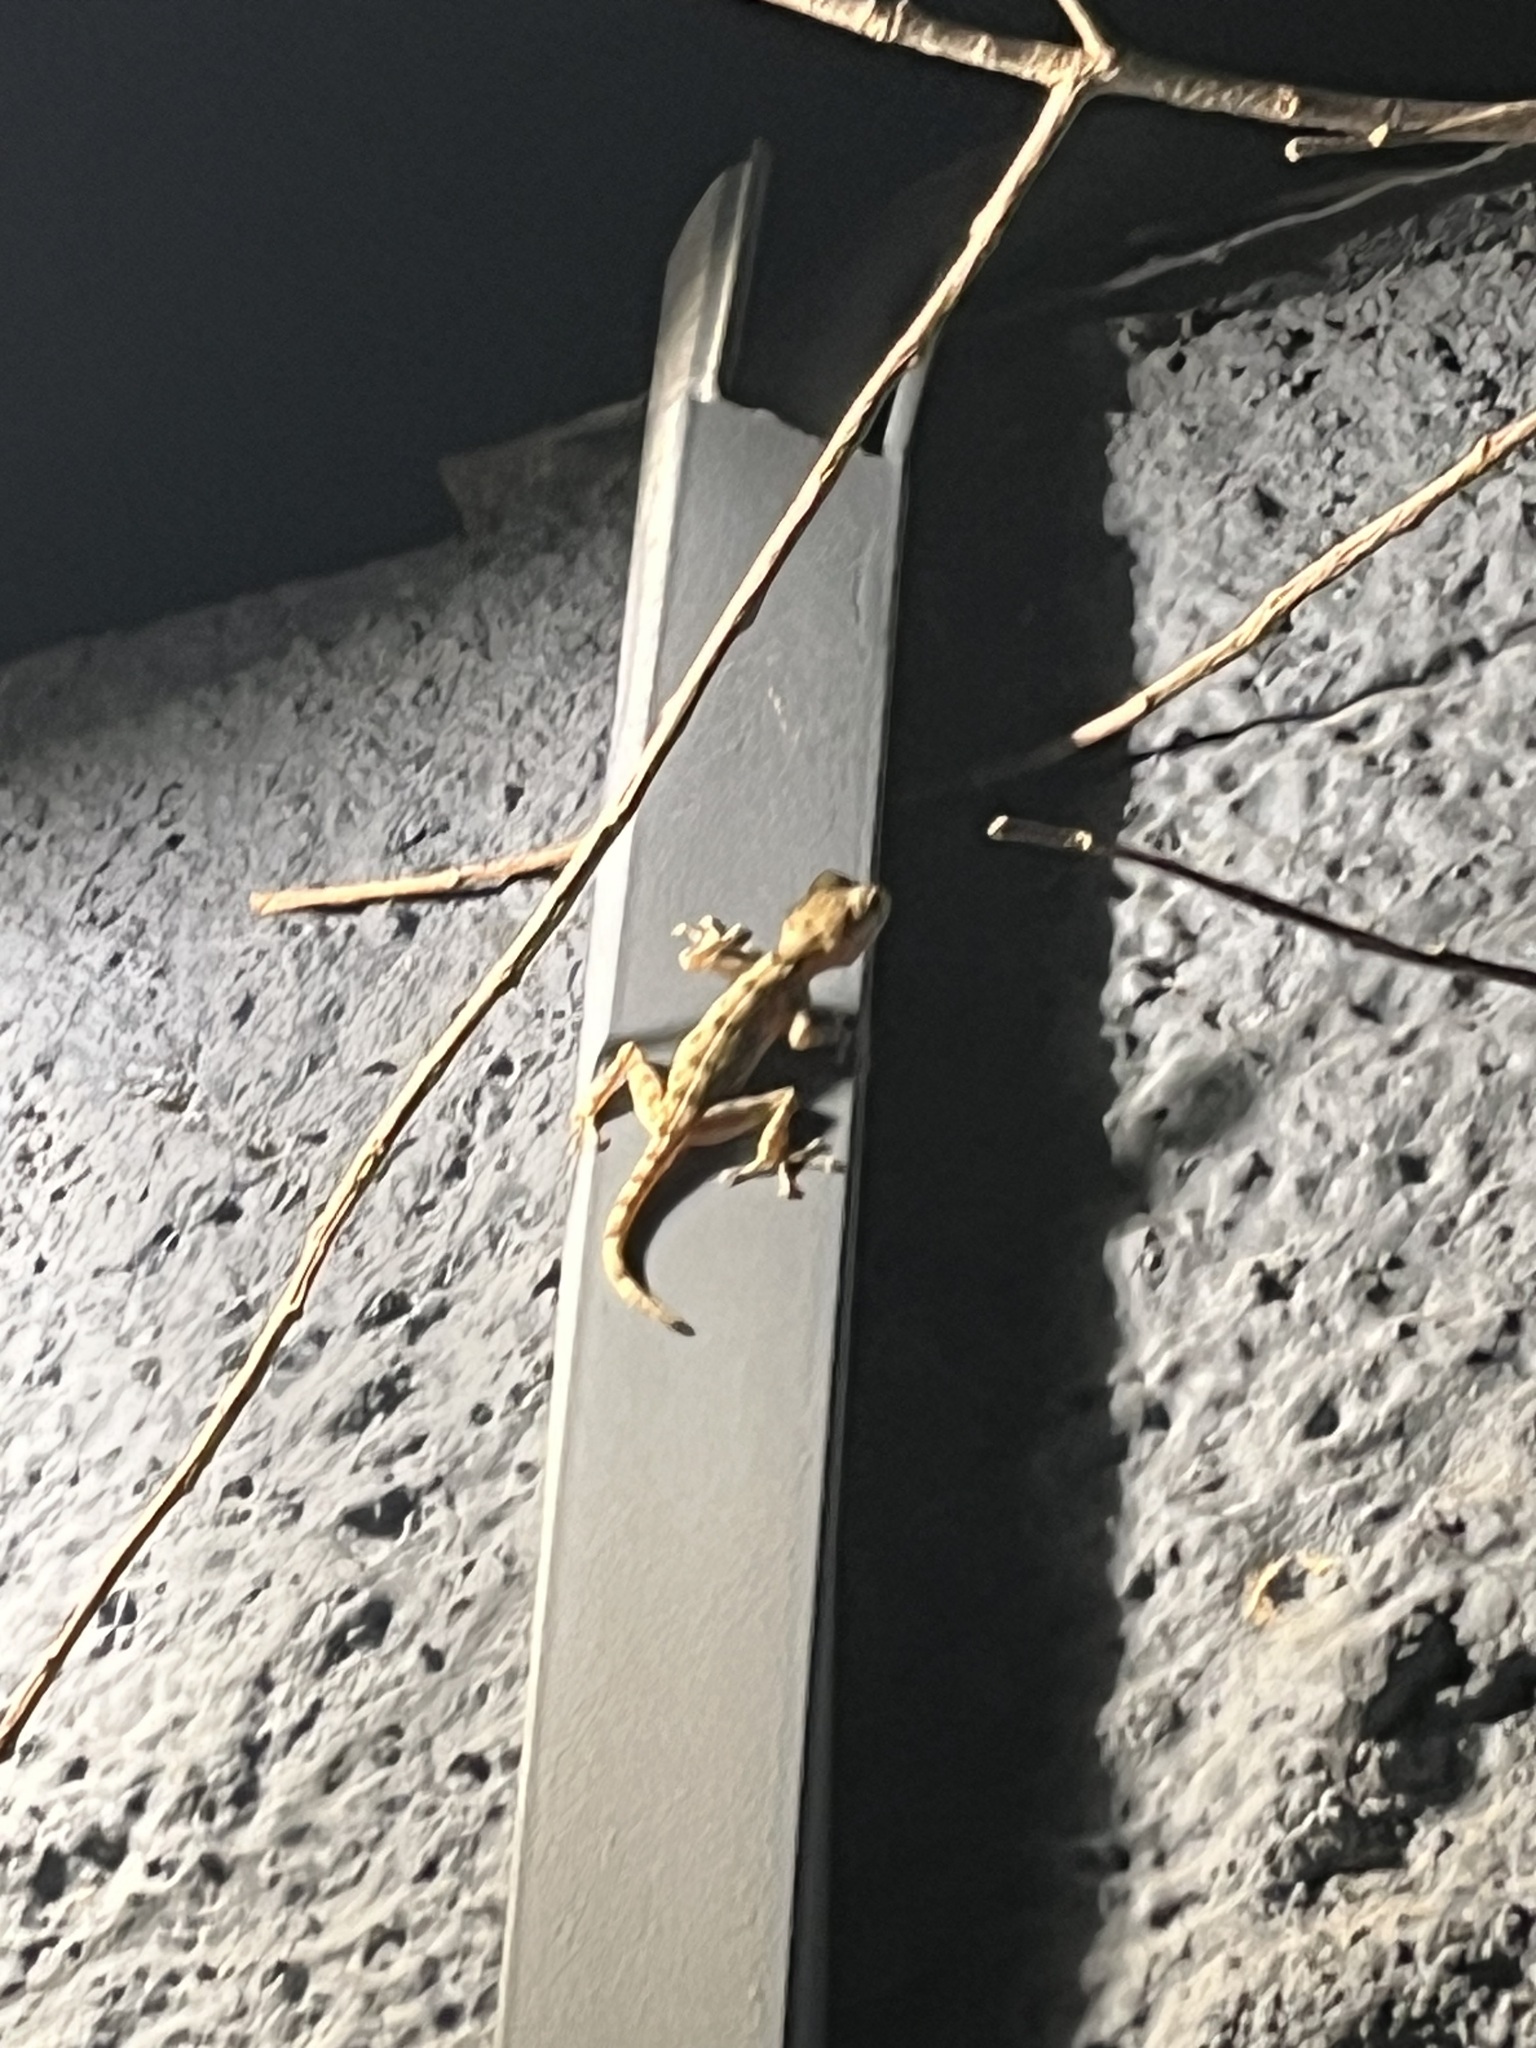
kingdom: Animalia
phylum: Chordata
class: Squamata
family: Phyllodactylidae
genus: Ptyodactylus
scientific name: Ptyodactylus guttatus
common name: Sinai fan-fingered gecko
